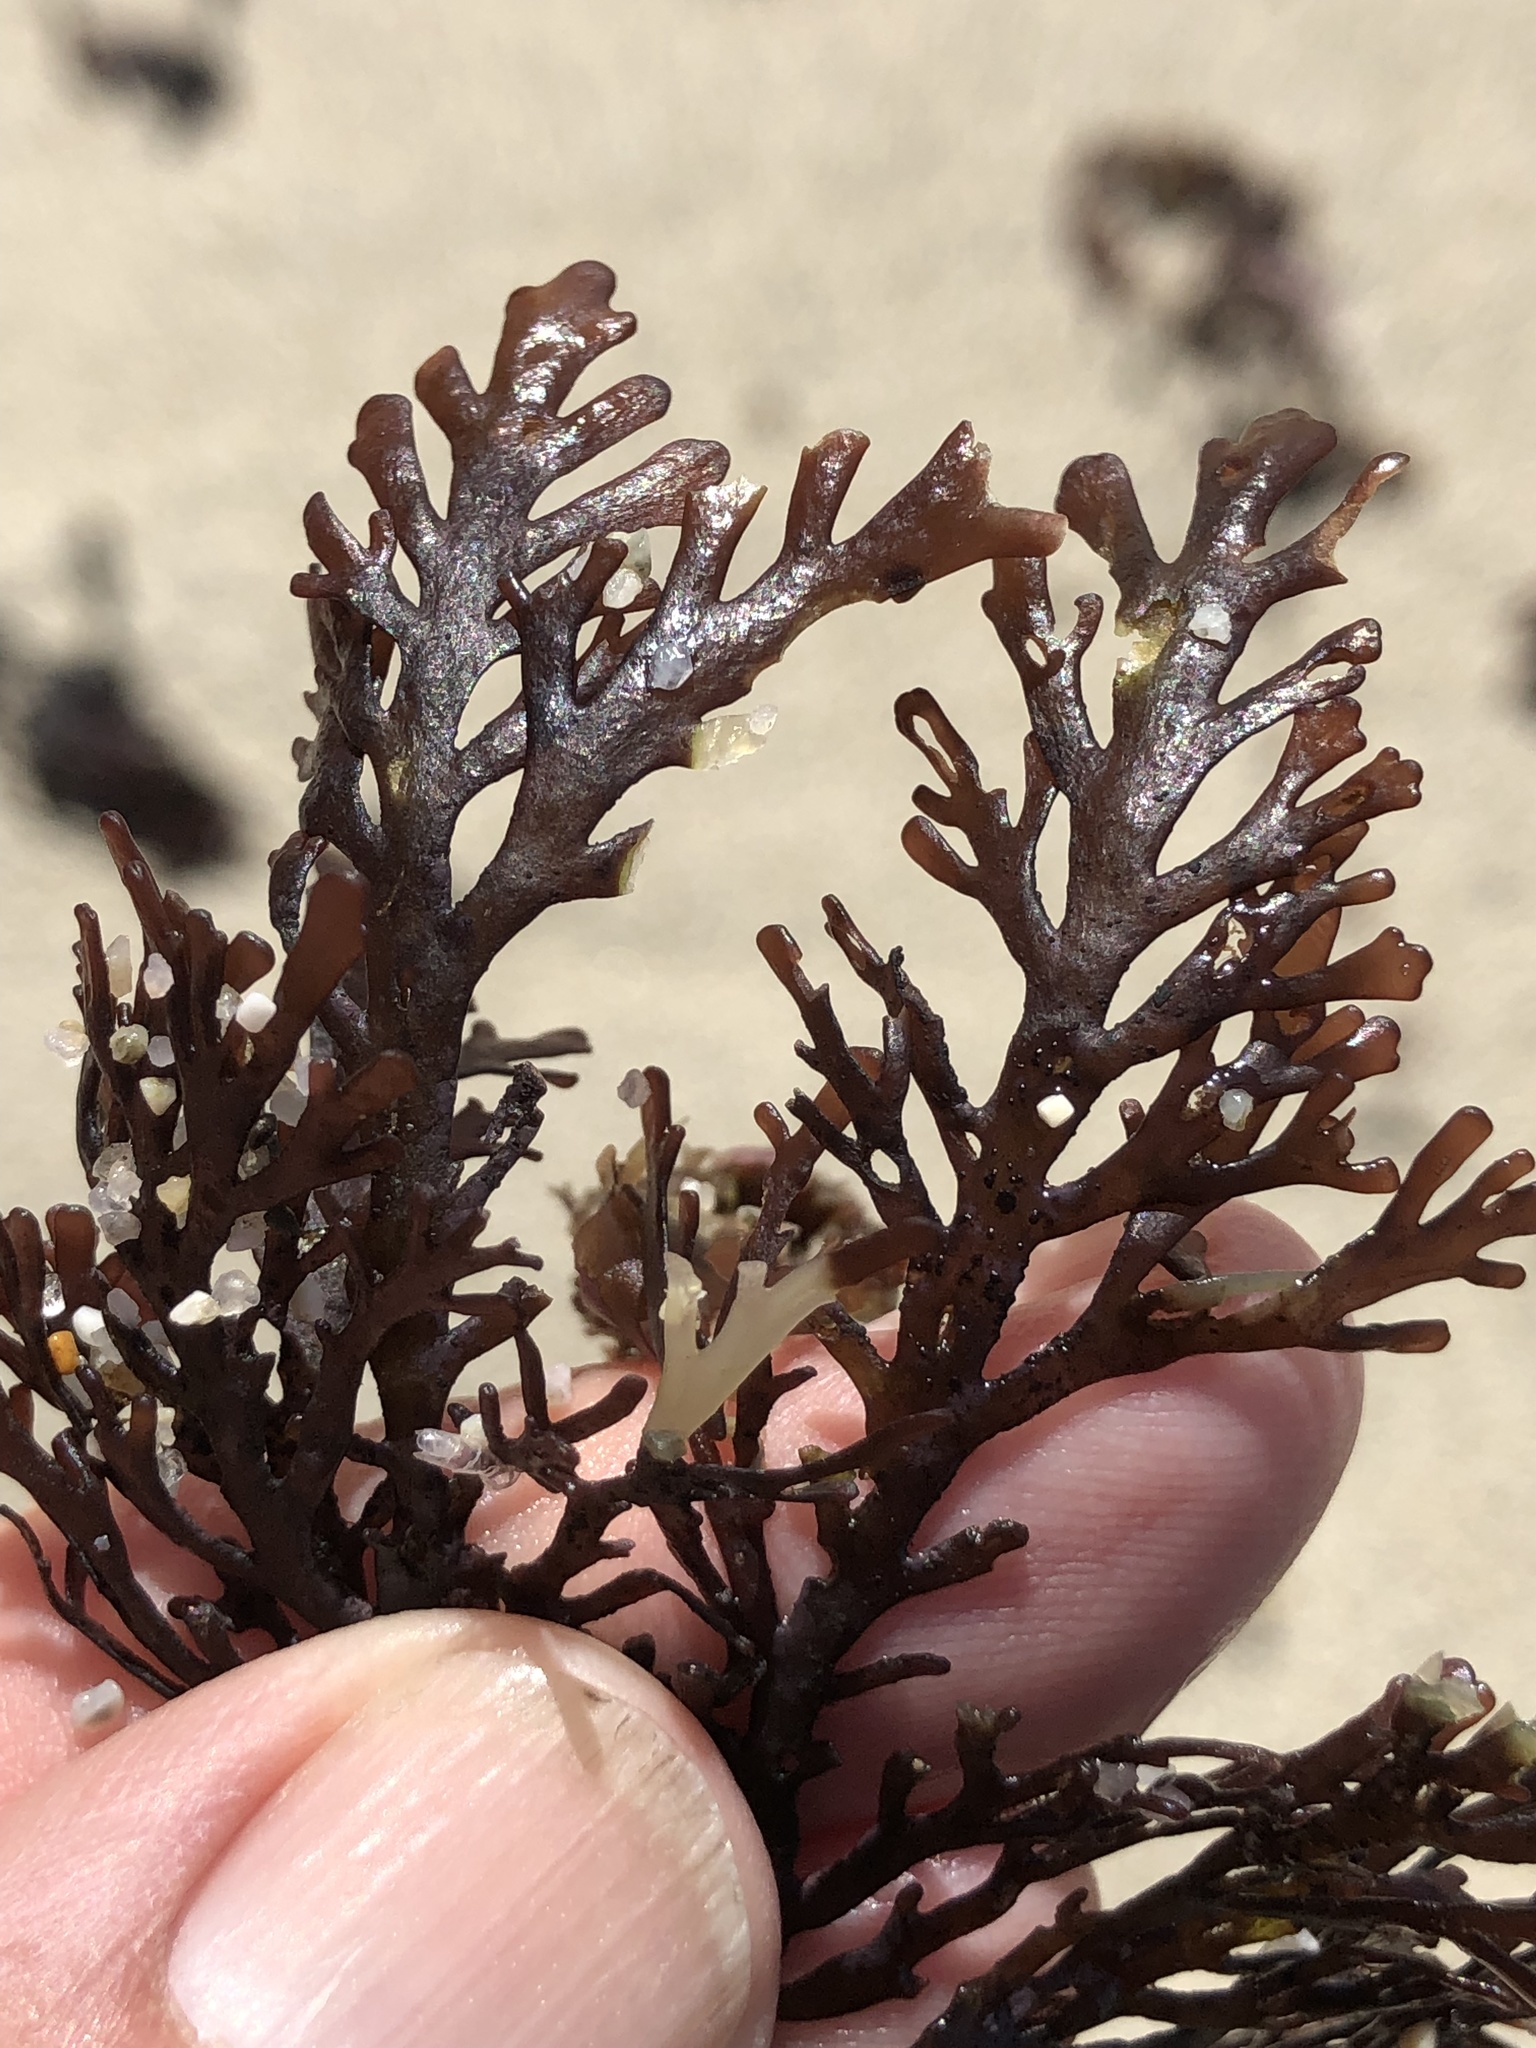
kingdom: Plantae
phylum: Rhodophyta
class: Florideophyceae
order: Ceramiales
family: Rhodomelaceae
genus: Osmundea
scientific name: Osmundea spectabilis
